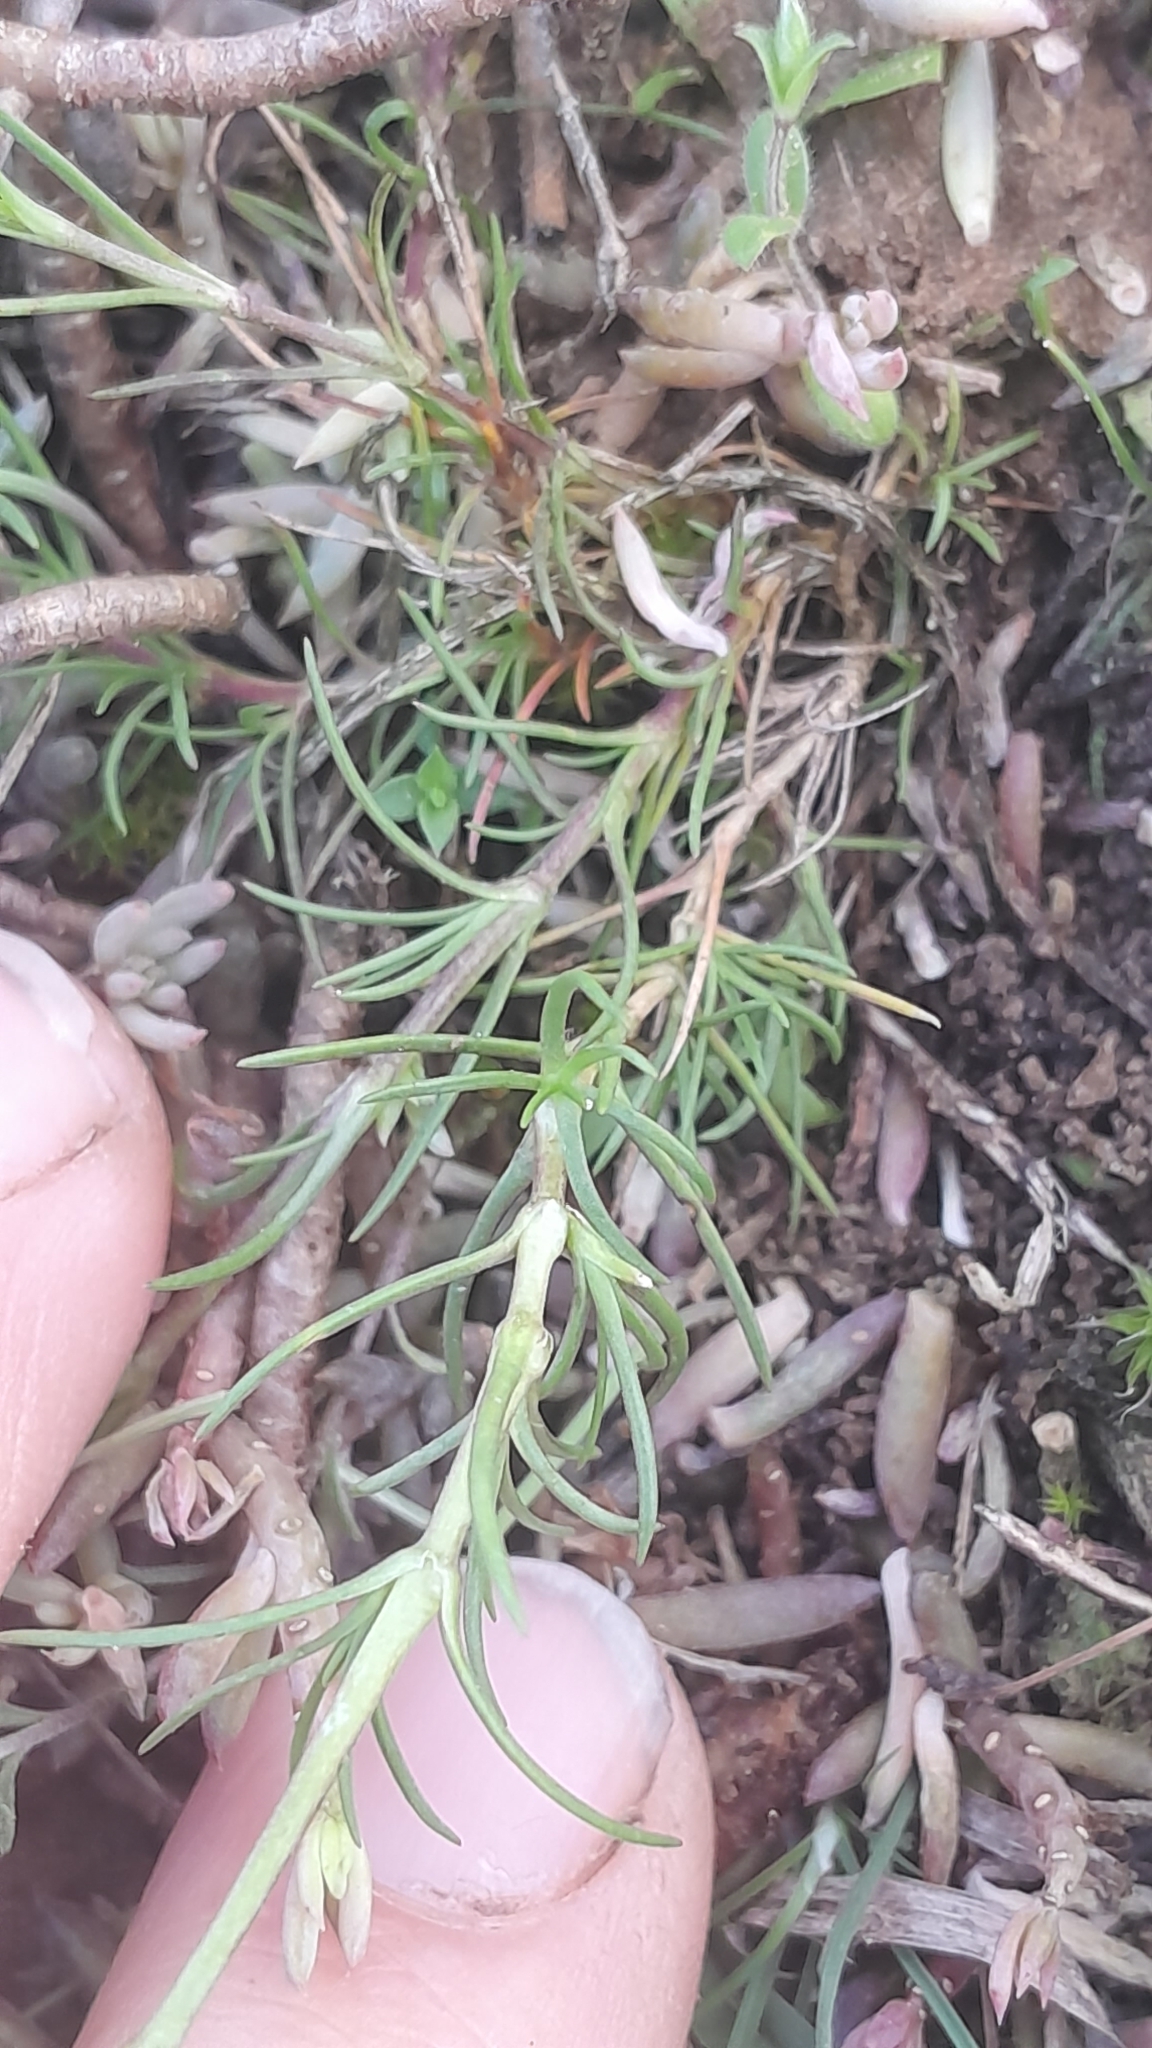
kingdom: Plantae
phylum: Tracheophyta
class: Magnoliopsida
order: Caryophyllales
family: Caryophyllaceae
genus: Sabulina
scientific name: Sabulina glaucina
